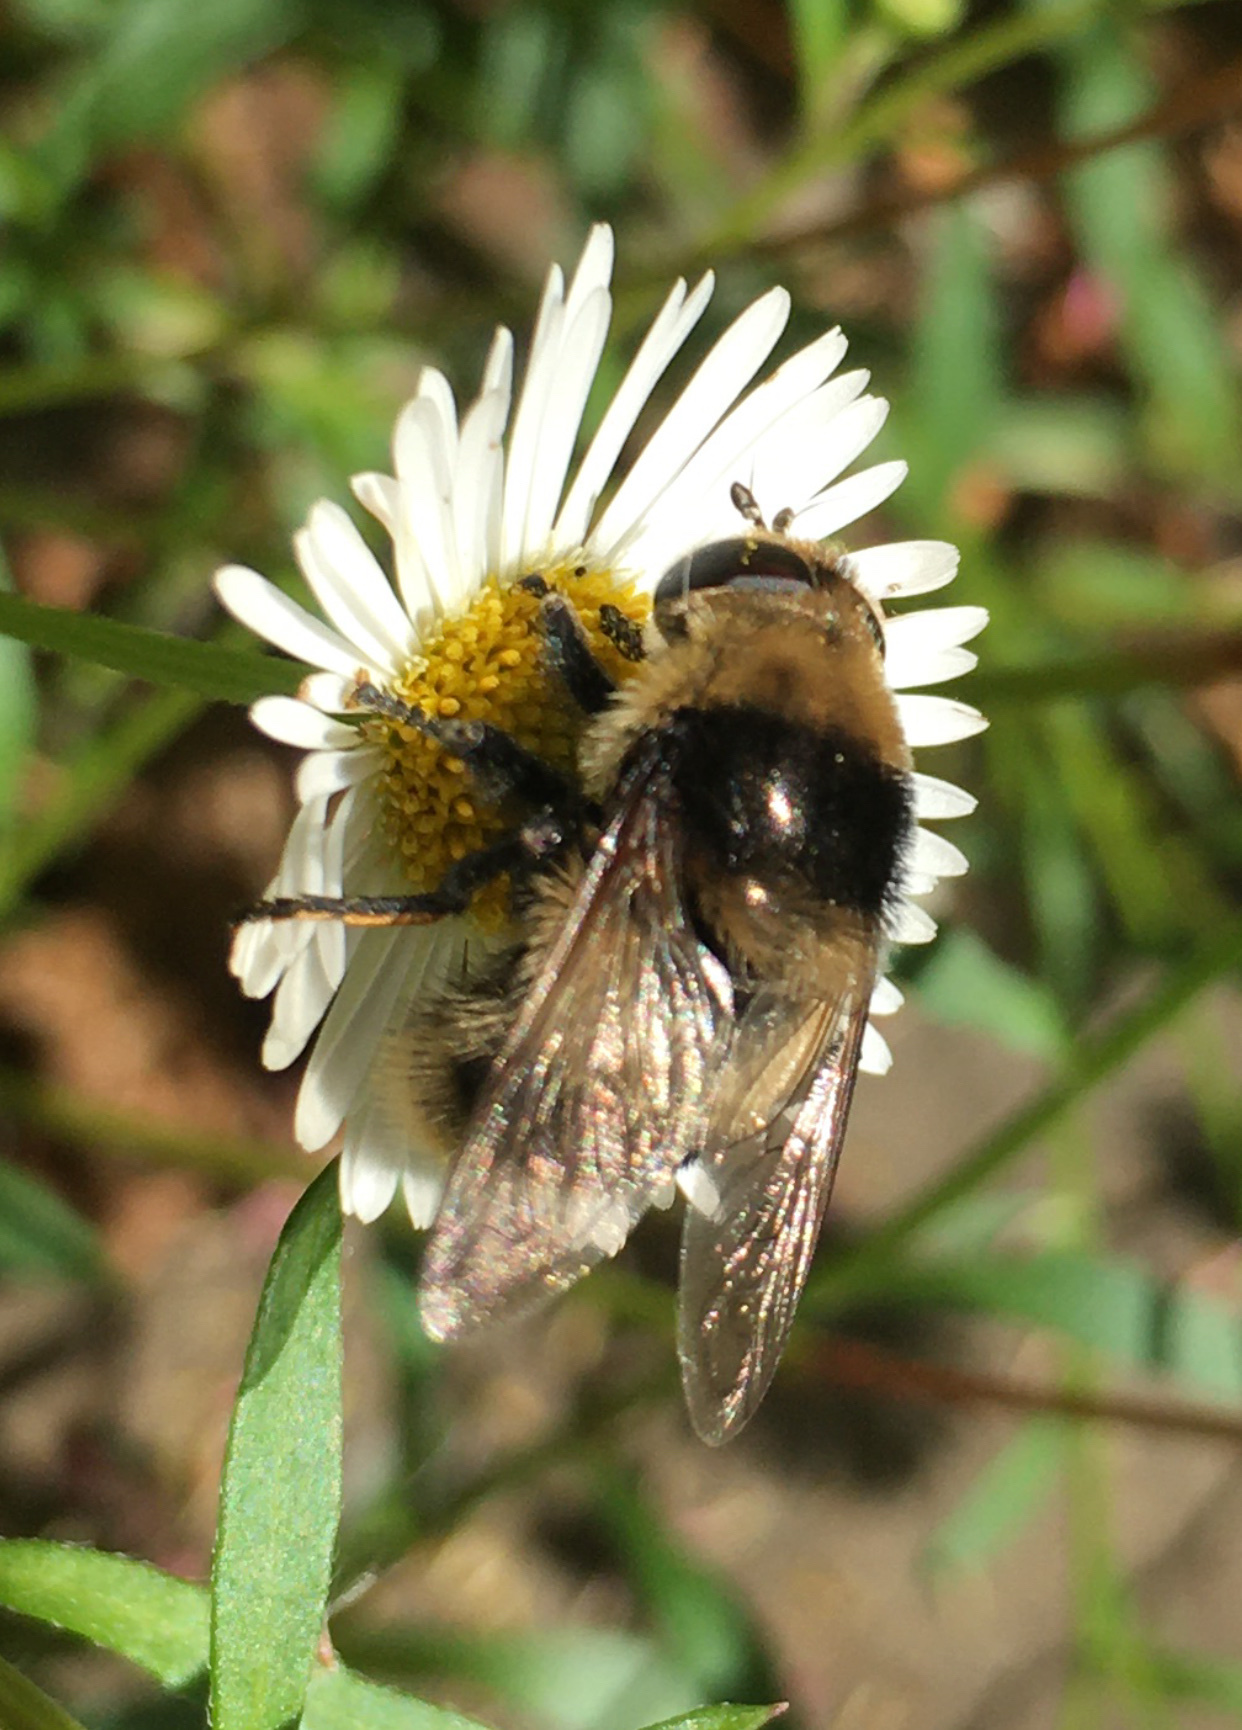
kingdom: Animalia
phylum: Arthropoda
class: Insecta
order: Diptera
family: Syrphidae
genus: Merodon
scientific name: Merodon equestris
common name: Greater bulb-fly
